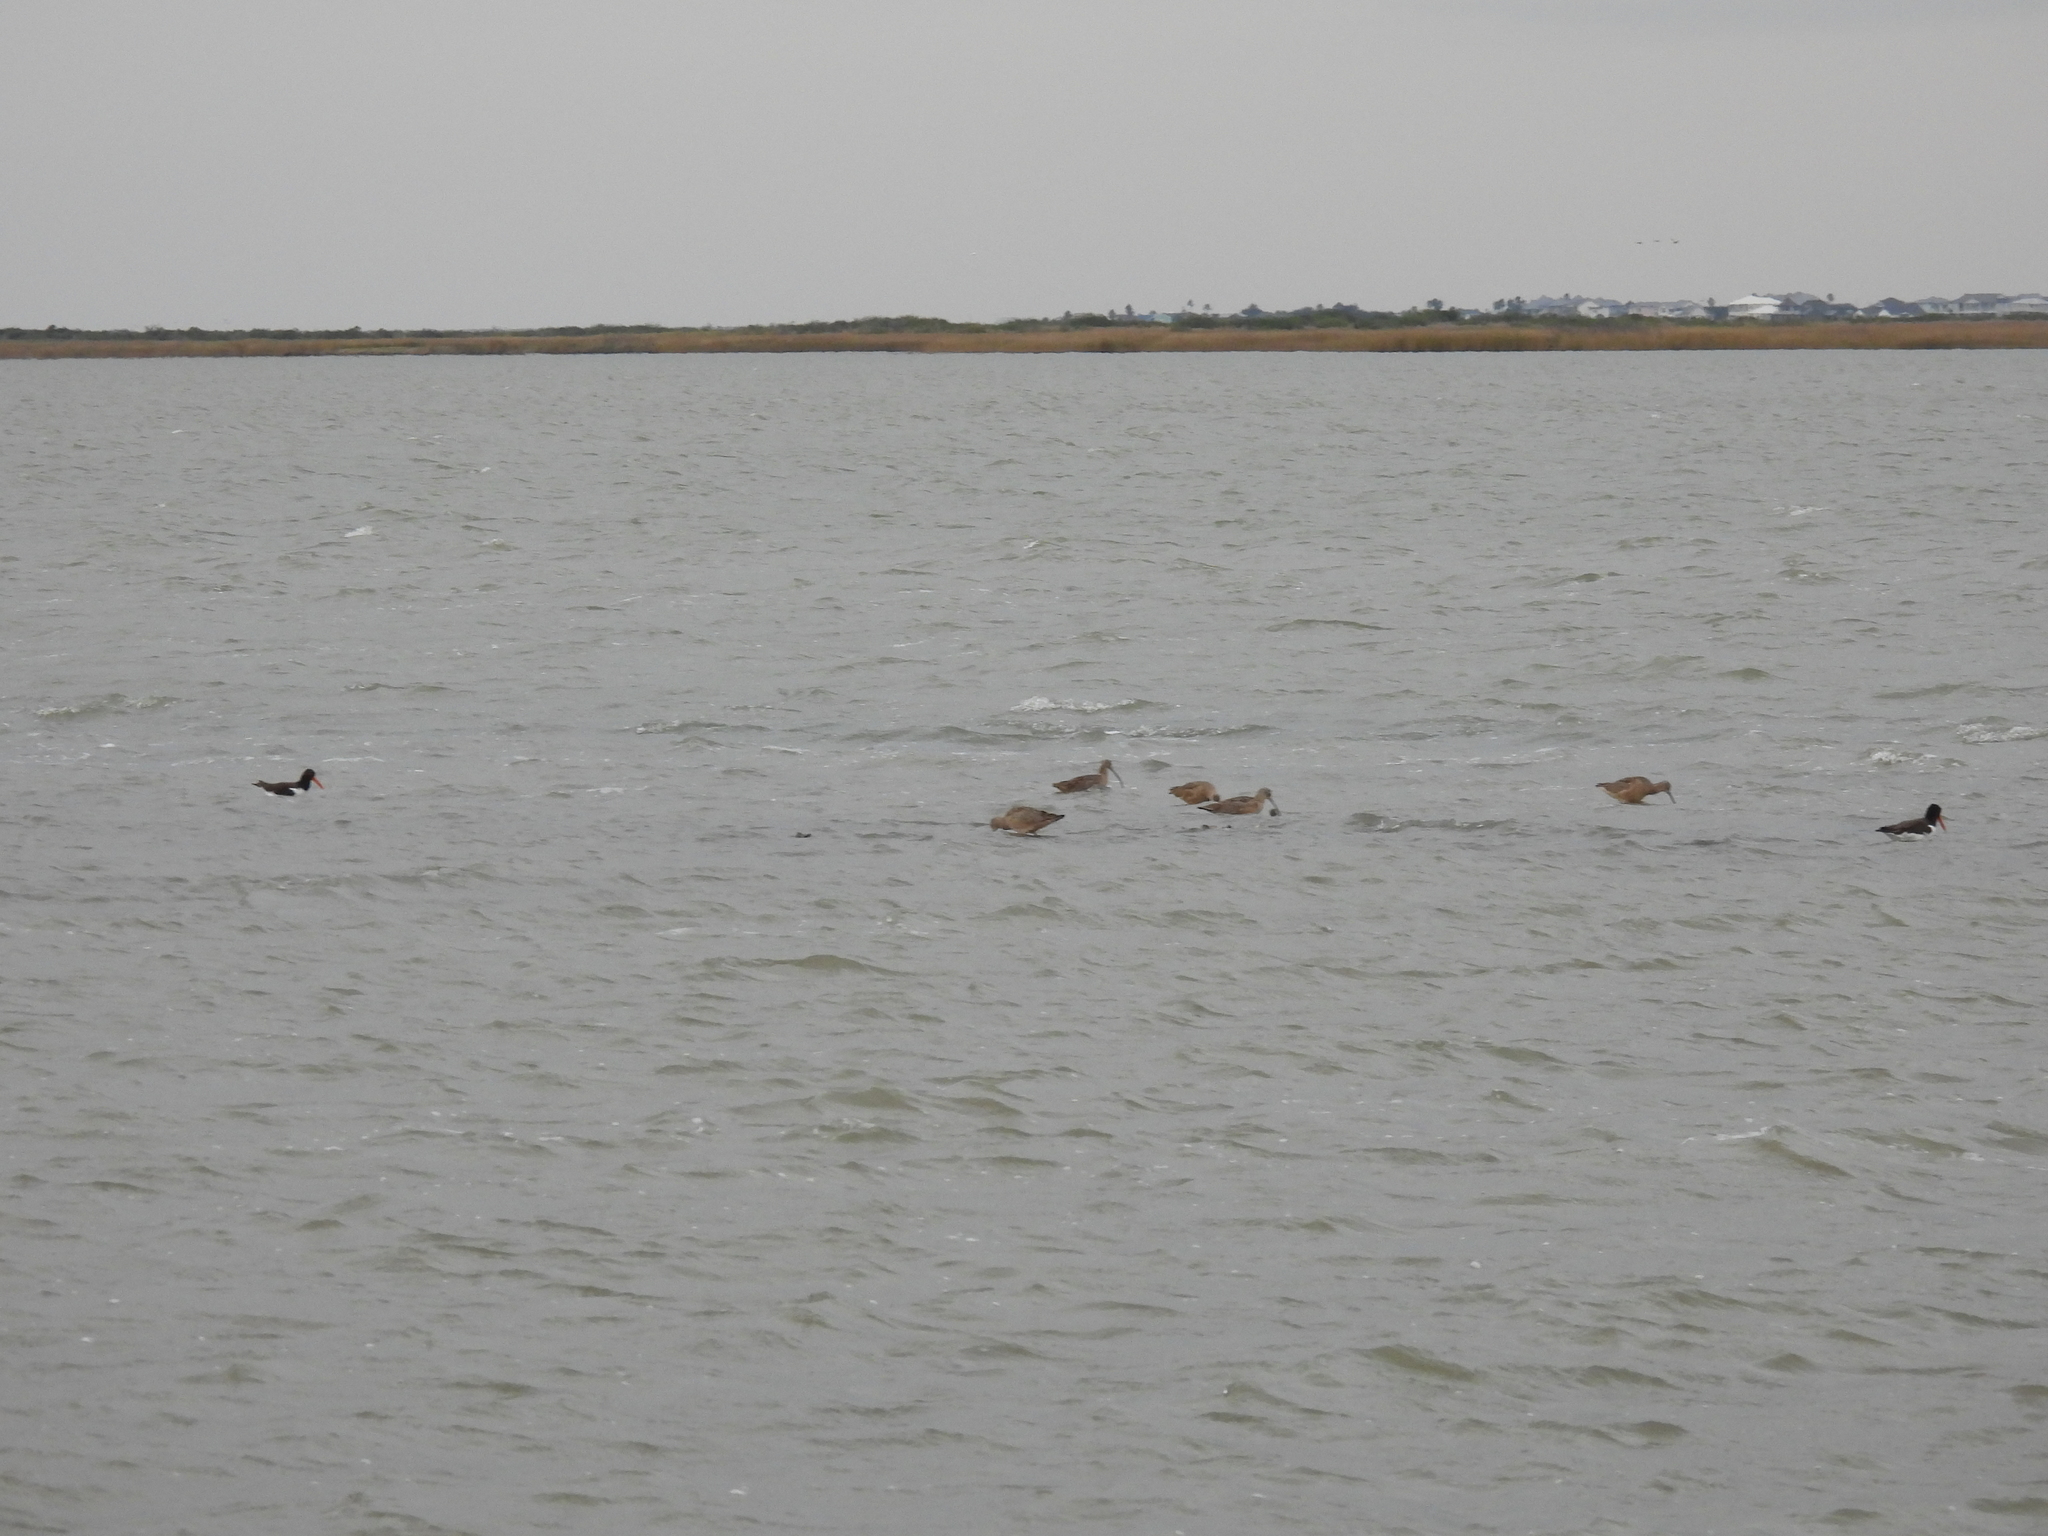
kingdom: Animalia
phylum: Chordata
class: Aves
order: Charadriiformes
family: Haematopodidae
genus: Haematopus
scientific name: Haematopus palliatus
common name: American oystercatcher
